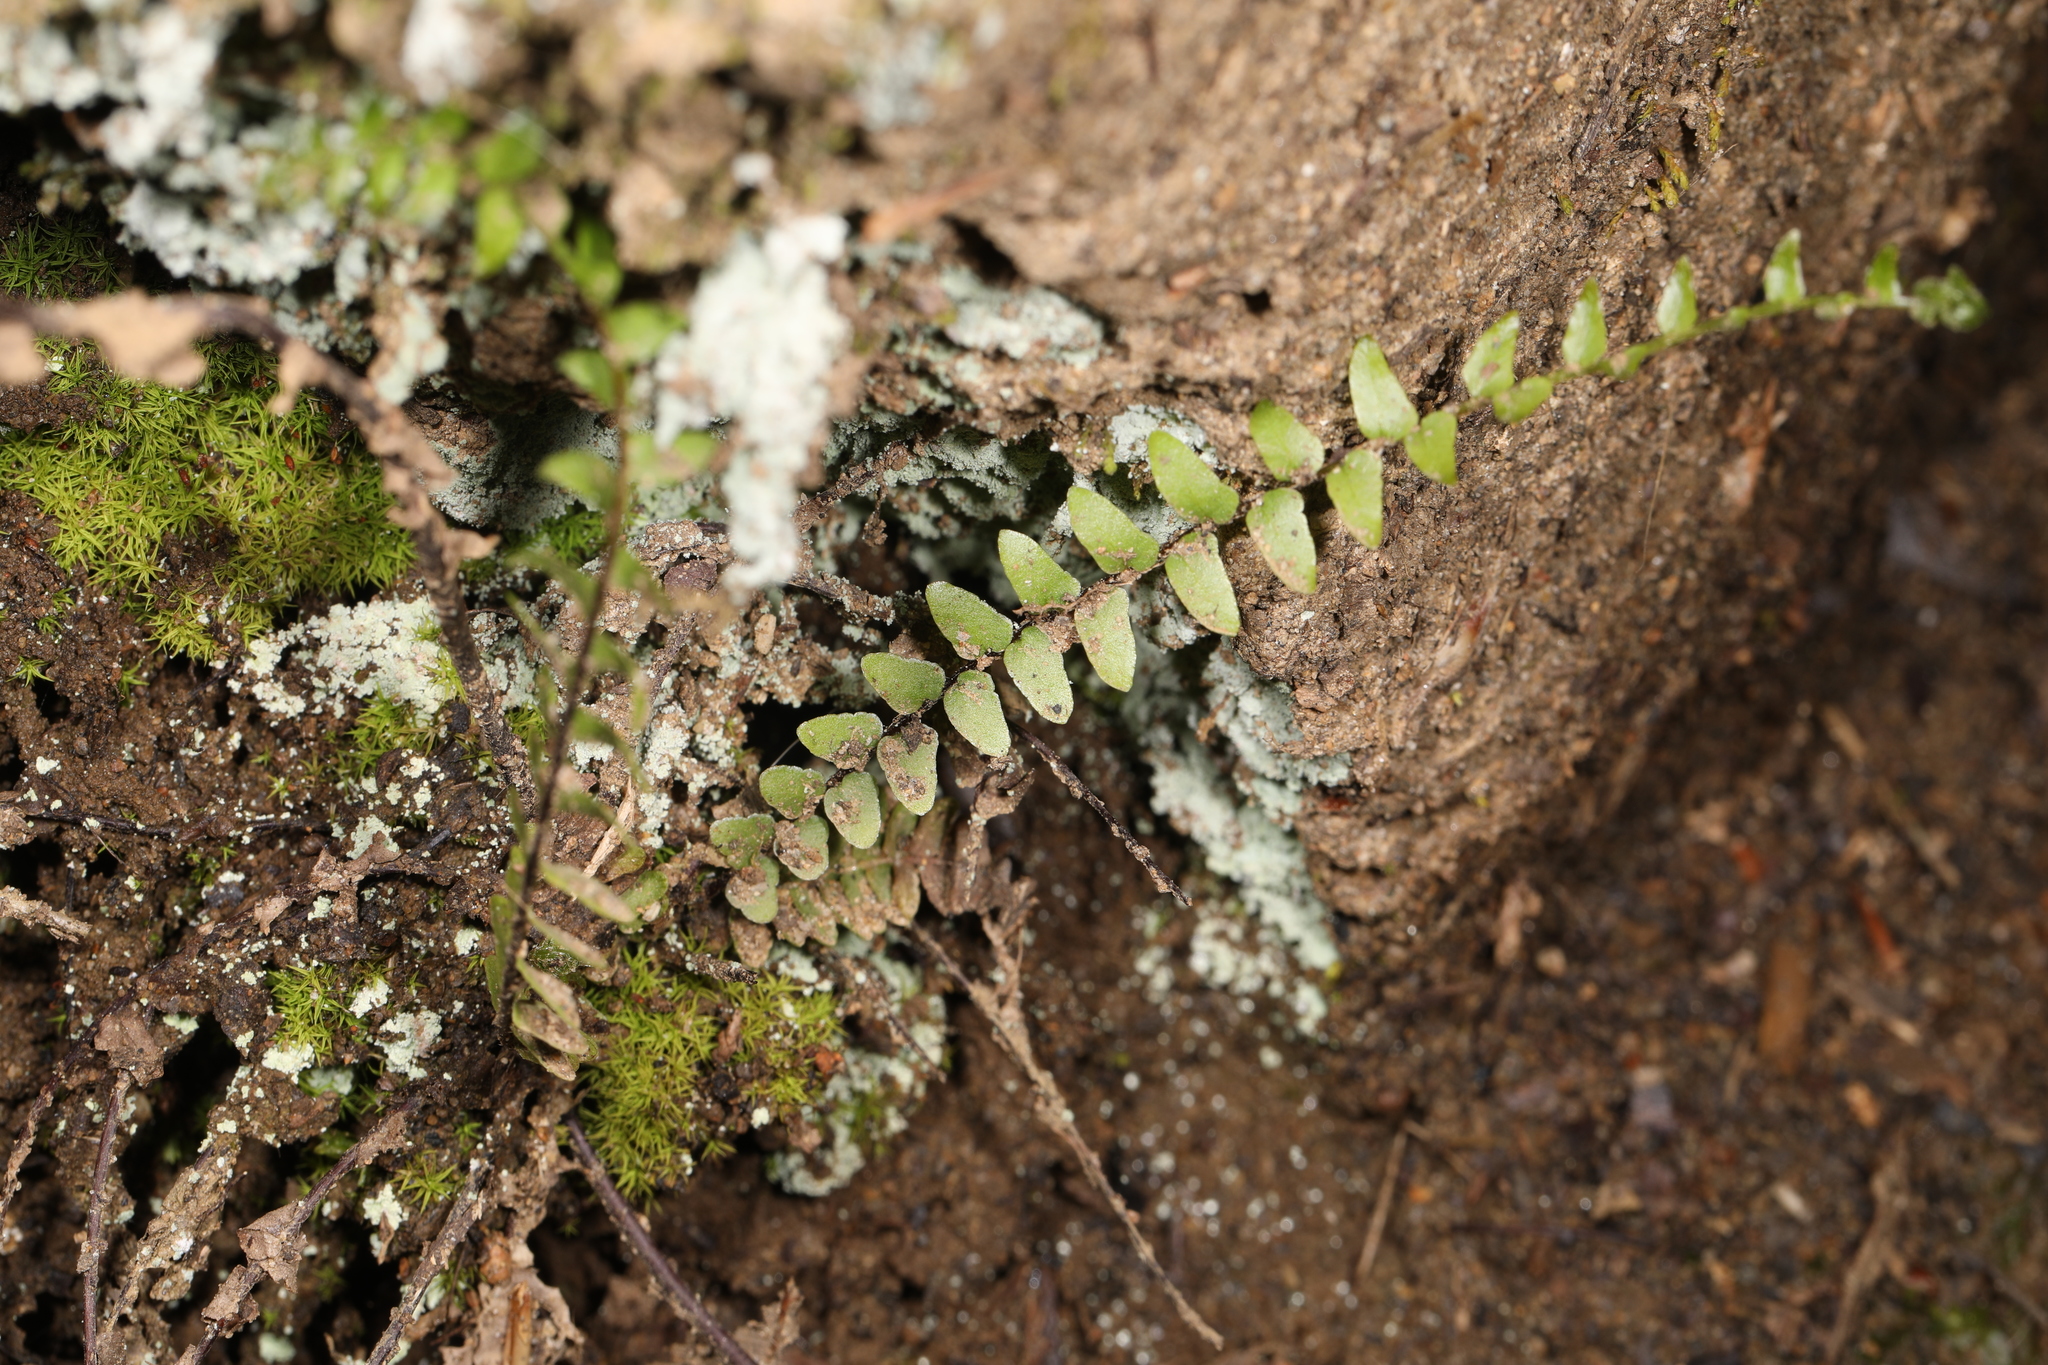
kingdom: Plantae
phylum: Tracheophyta
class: Polypodiopsida
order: Polypodiales
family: Aspleniaceae
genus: Asplenium
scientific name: Asplenium platyneuron
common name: Ebony spleenwort
